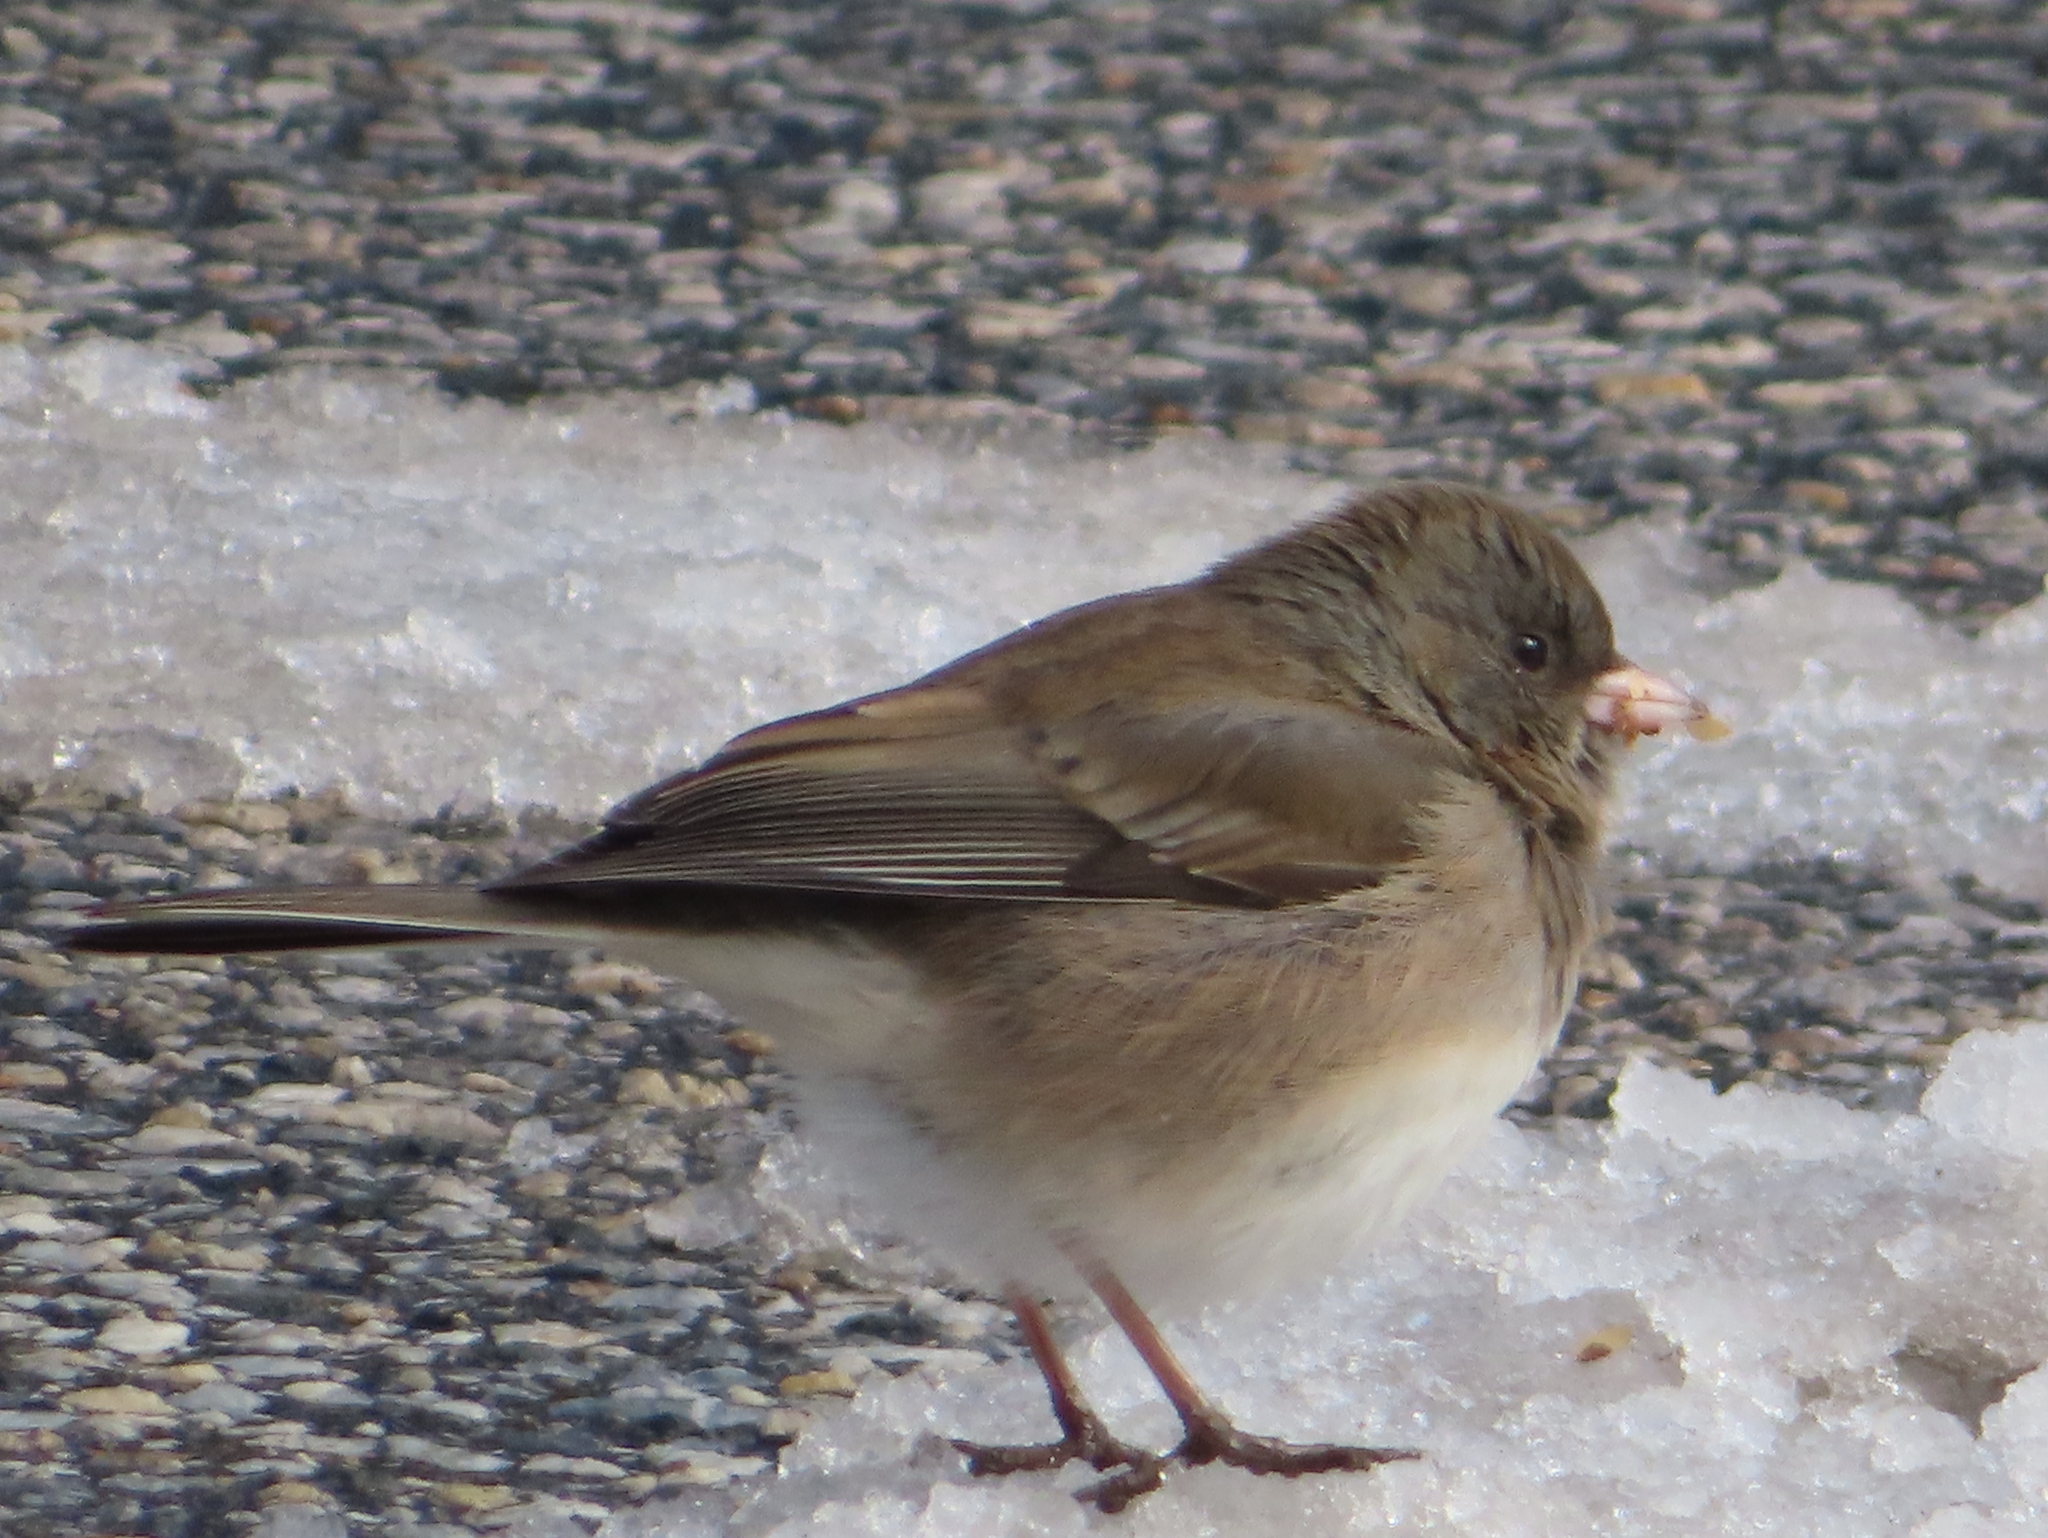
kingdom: Animalia
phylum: Chordata
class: Aves
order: Passeriformes
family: Passerellidae
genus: Junco
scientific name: Junco hyemalis
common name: Dark-eyed junco
